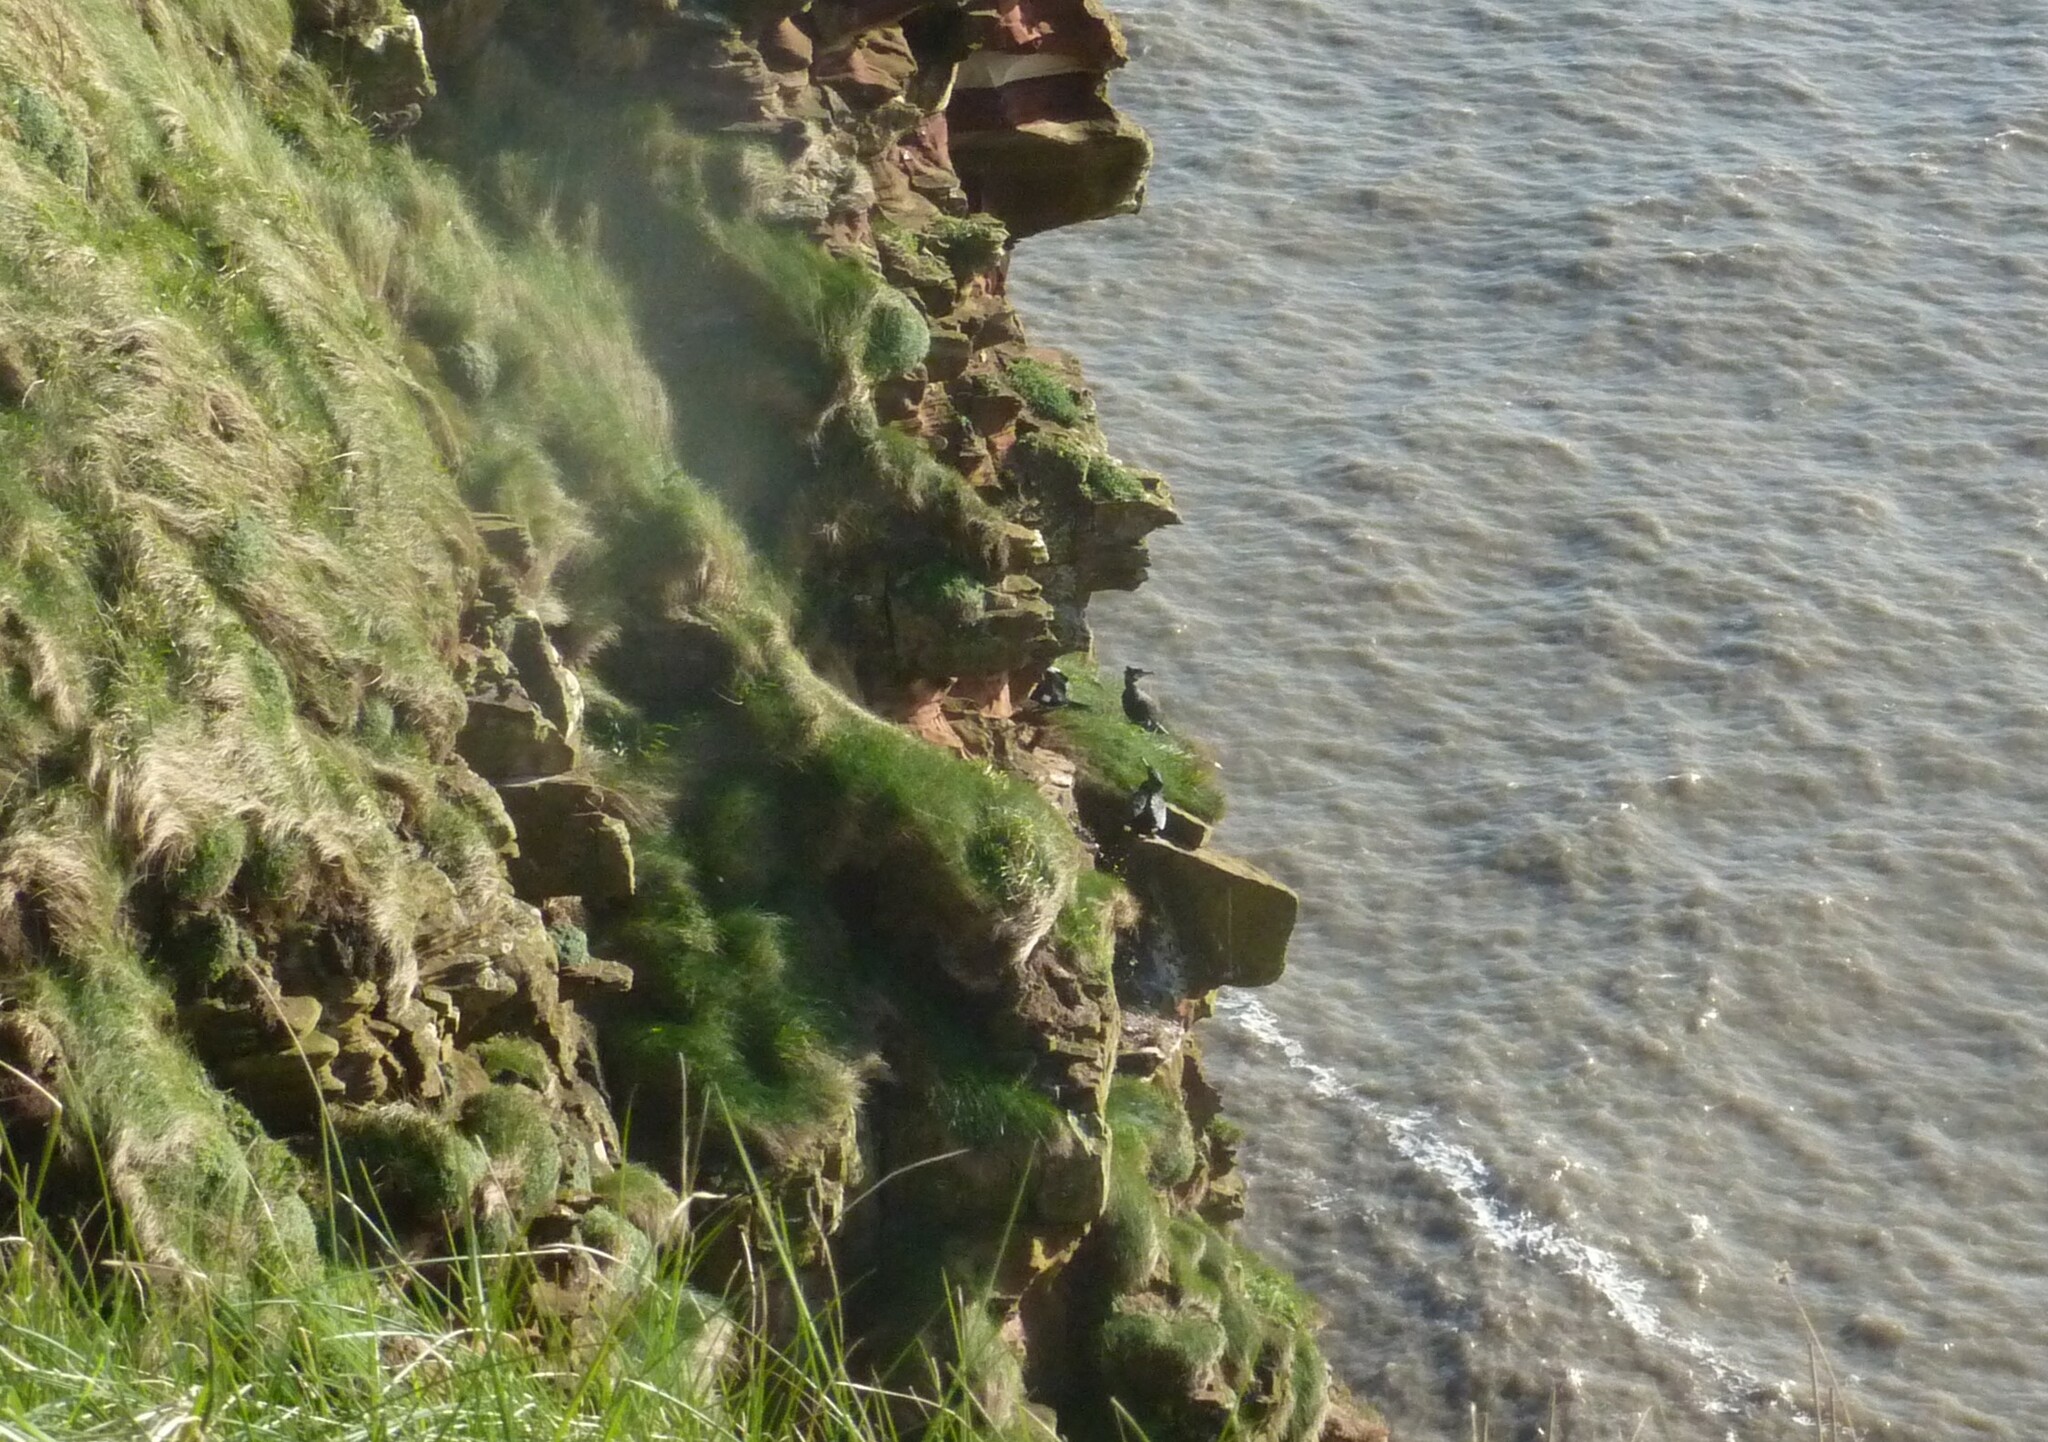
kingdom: Animalia
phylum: Chordata
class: Aves
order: Suliformes
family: Phalacrocoracidae
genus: Phalacrocorax
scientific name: Phalacrocorax aristotelis
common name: European shag
